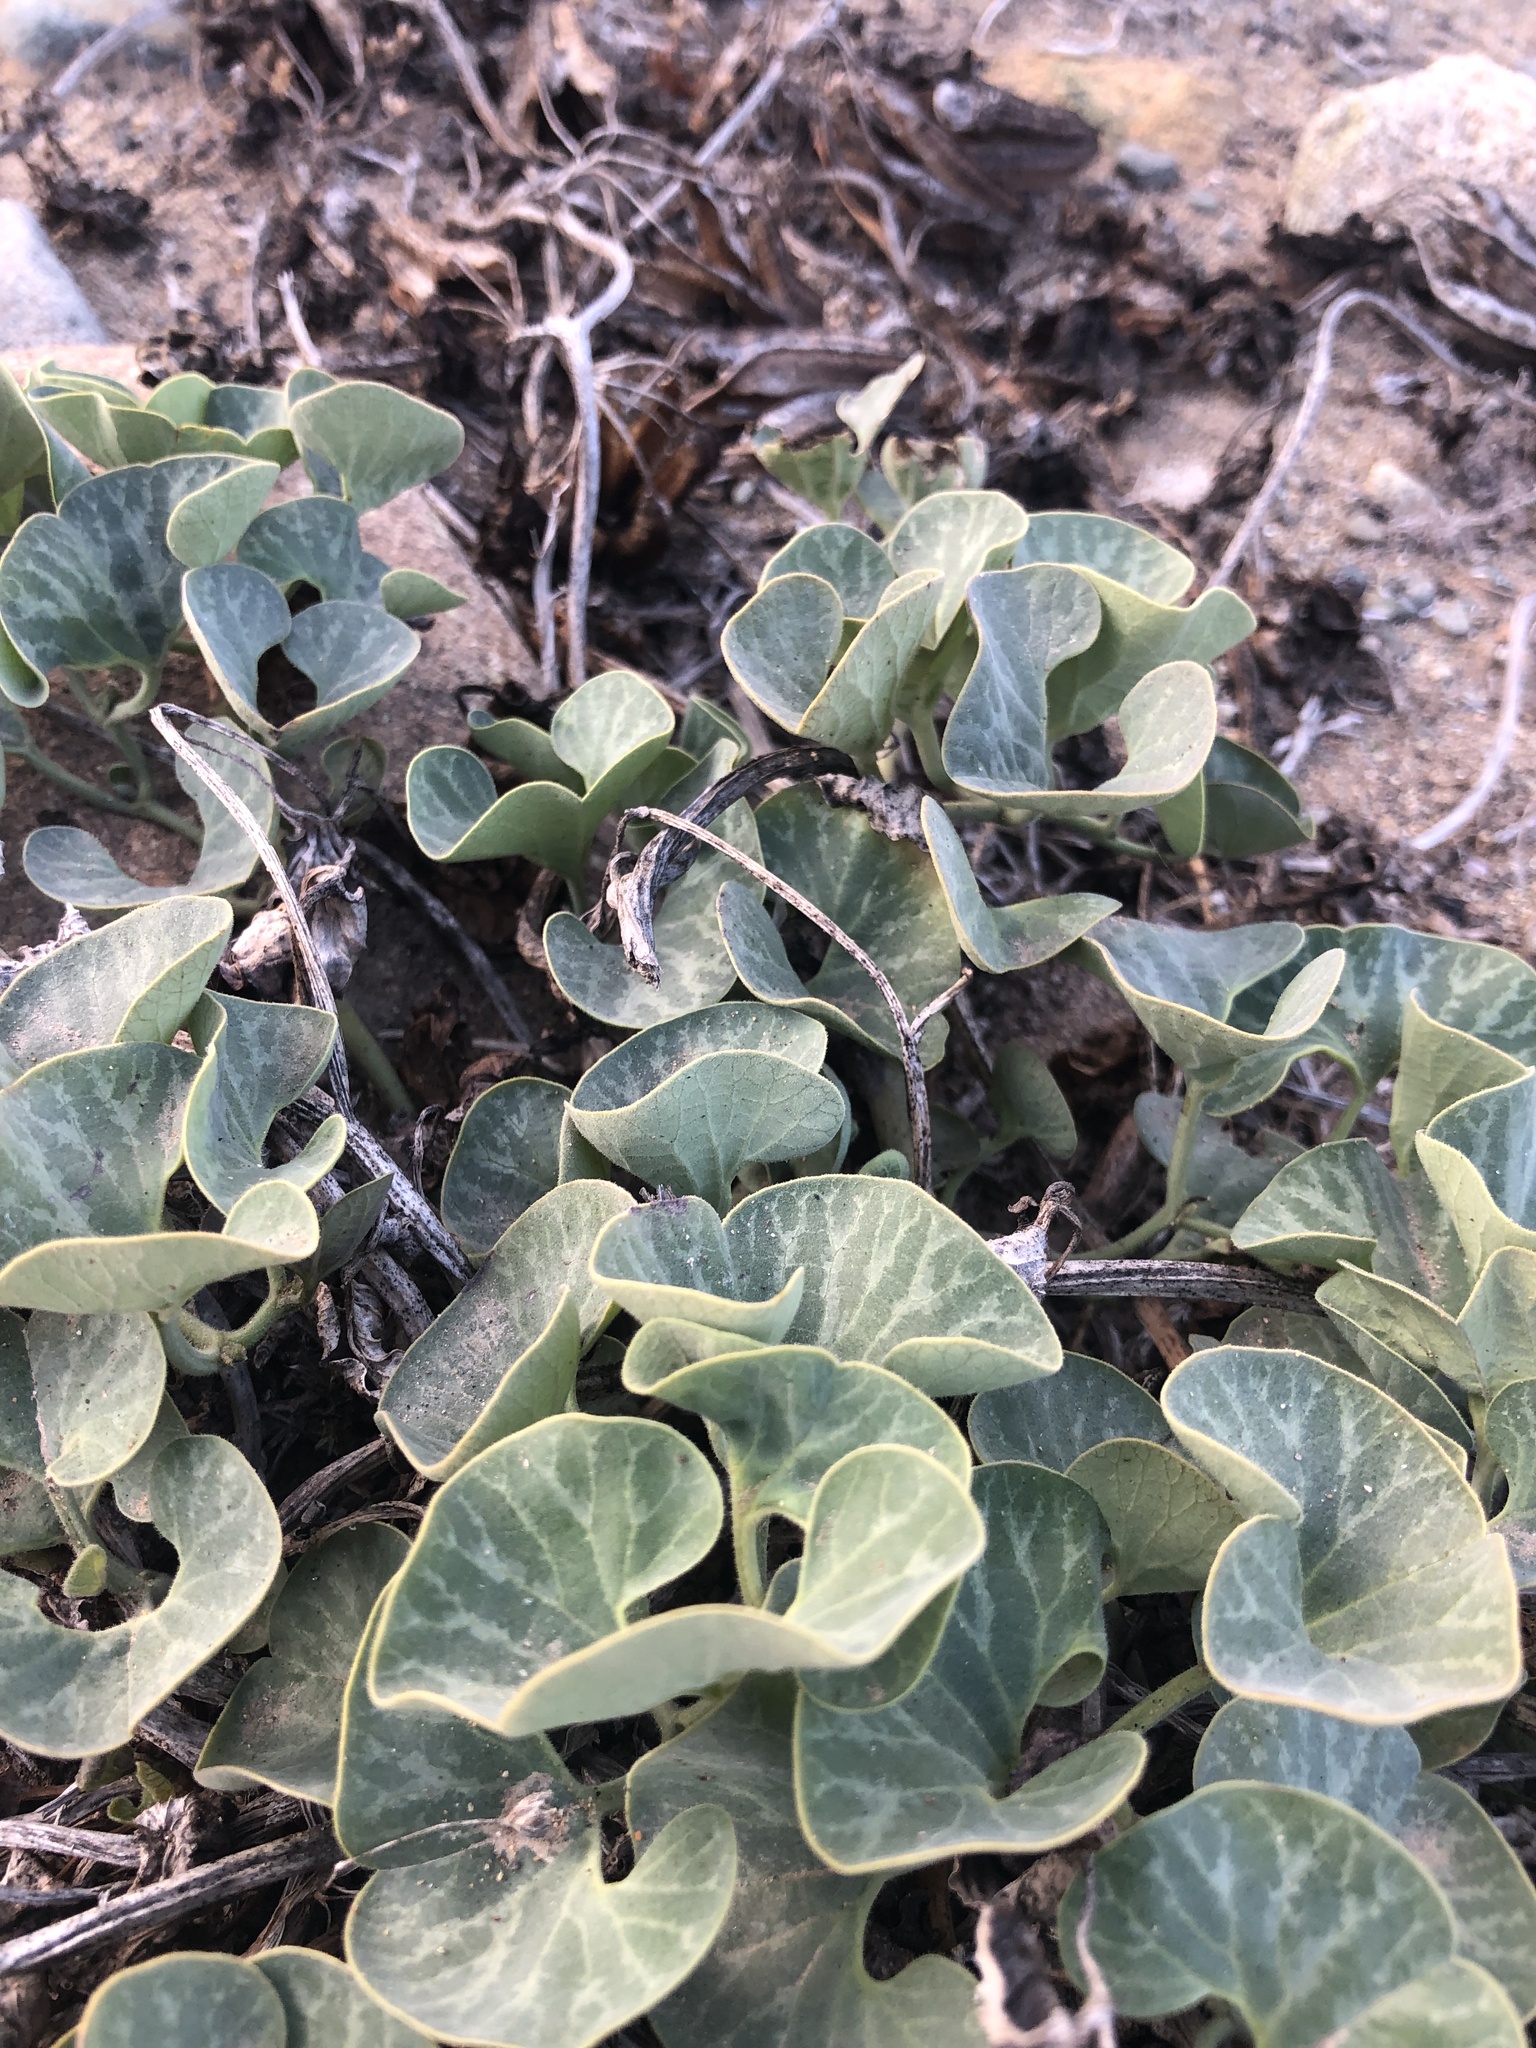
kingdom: Plantae
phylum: Tracheophyta
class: Magnoliopsida
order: Piperales
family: Aristolochiaceae
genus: Aristolochia
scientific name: Aristolochia chilensis
